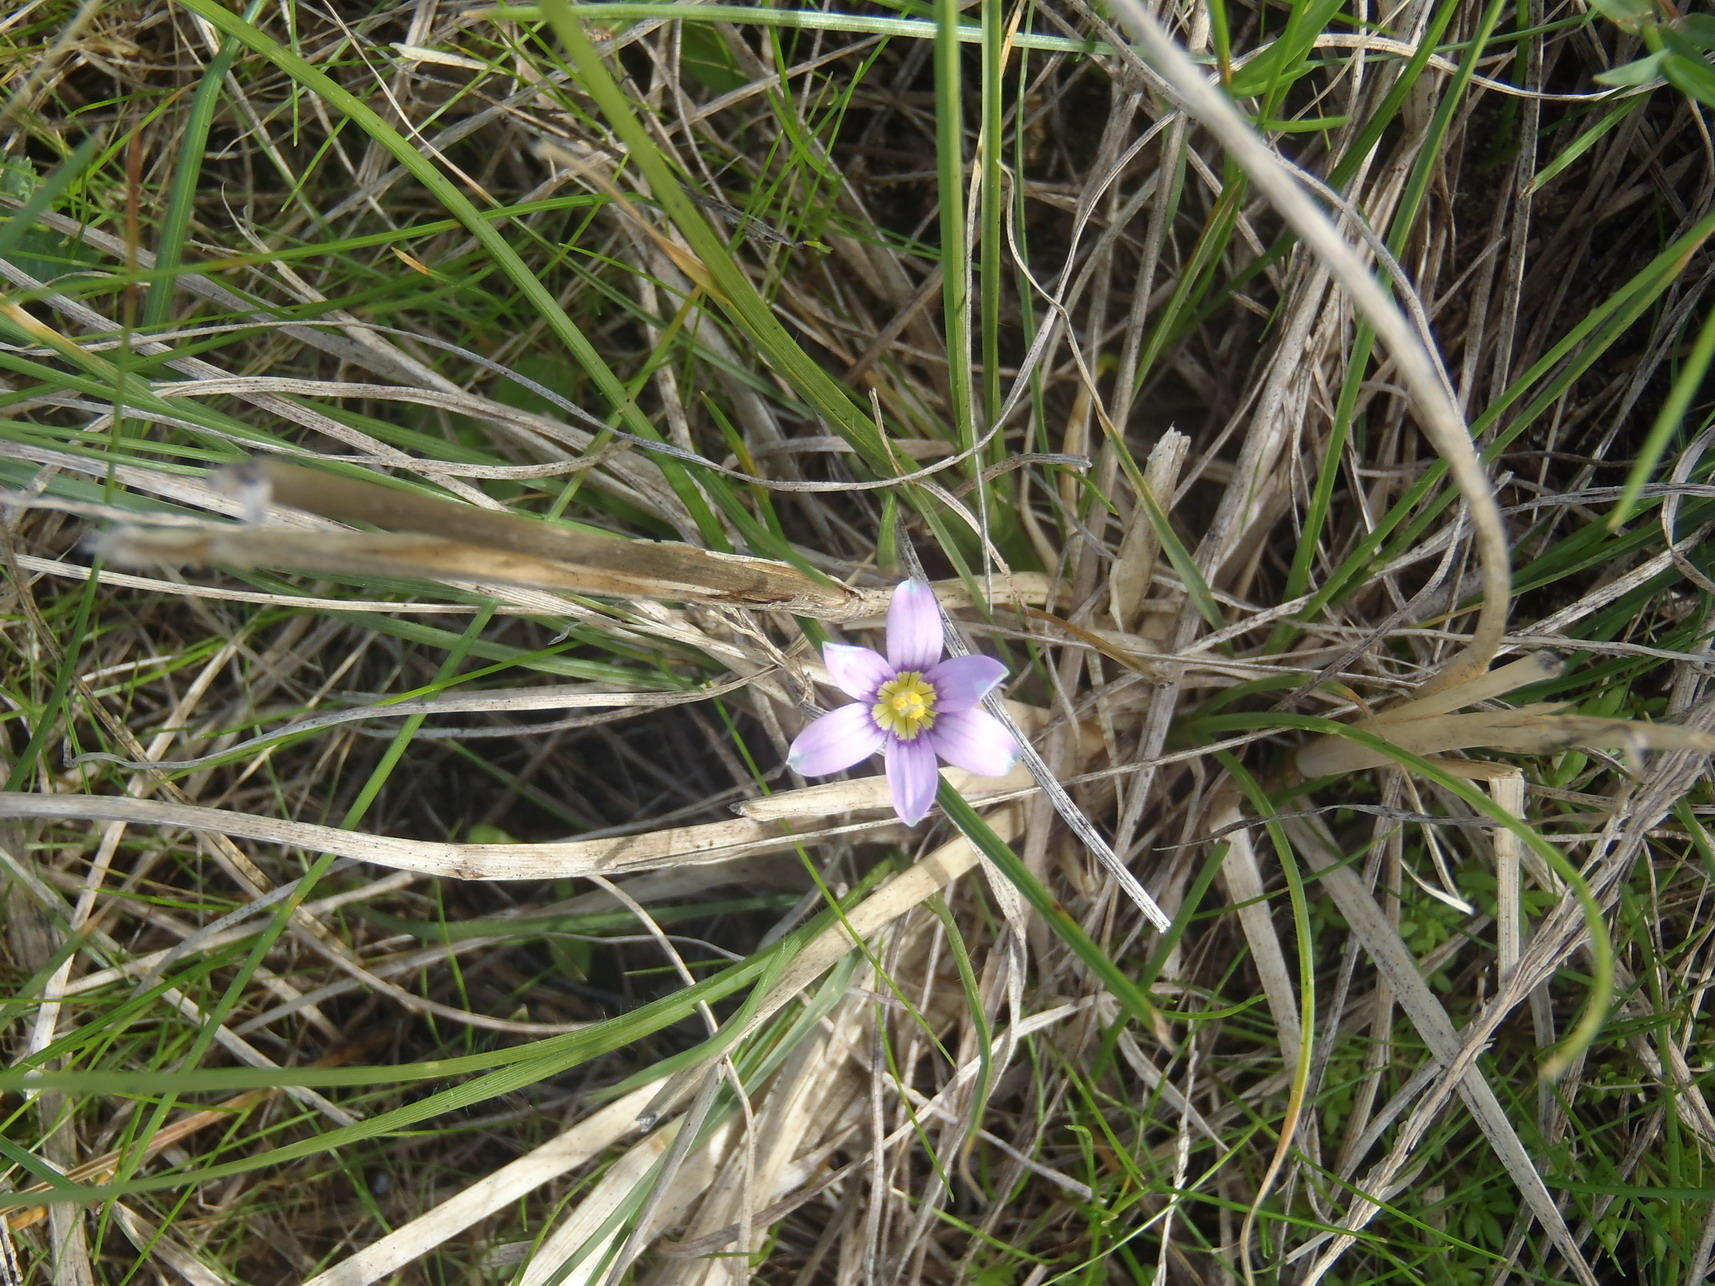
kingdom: Plantae
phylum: Tracheophyta
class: Liliopsida
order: Asparagales
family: Iridaceae
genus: Romulea
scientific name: Romulea minutiflora
